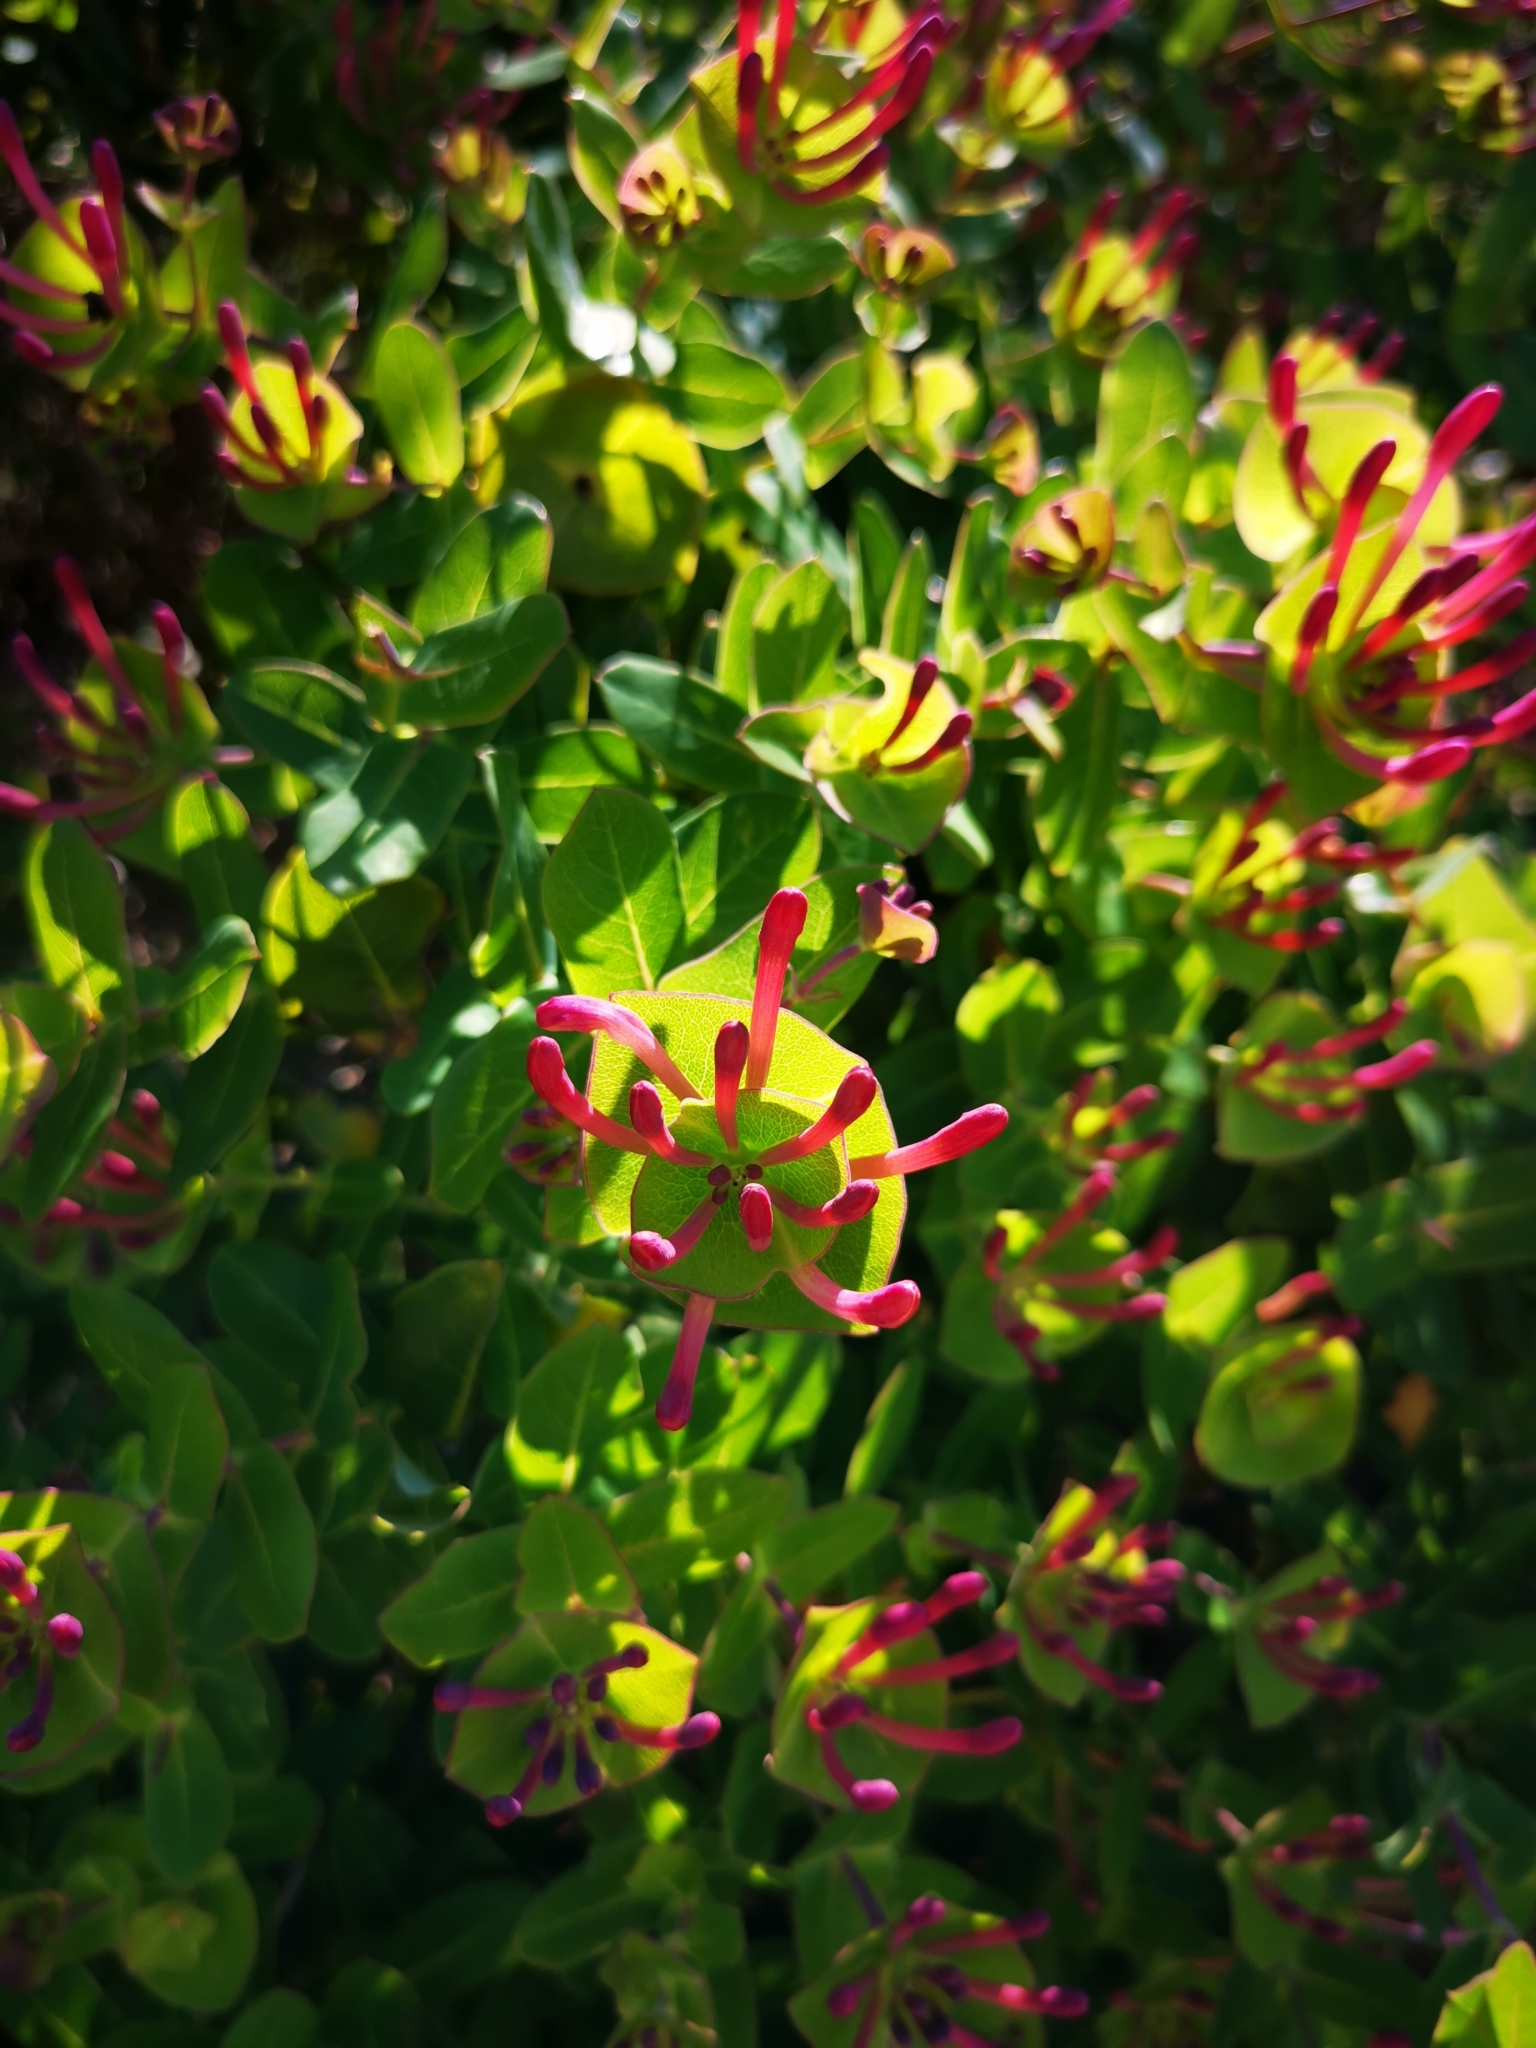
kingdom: Plantae
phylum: Tracheophyta
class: Magnoliopsida
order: Dipsacales
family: Caprifoliaceae
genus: Lonicera
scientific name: Lonicera implexa
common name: Minorca honeysuckle
